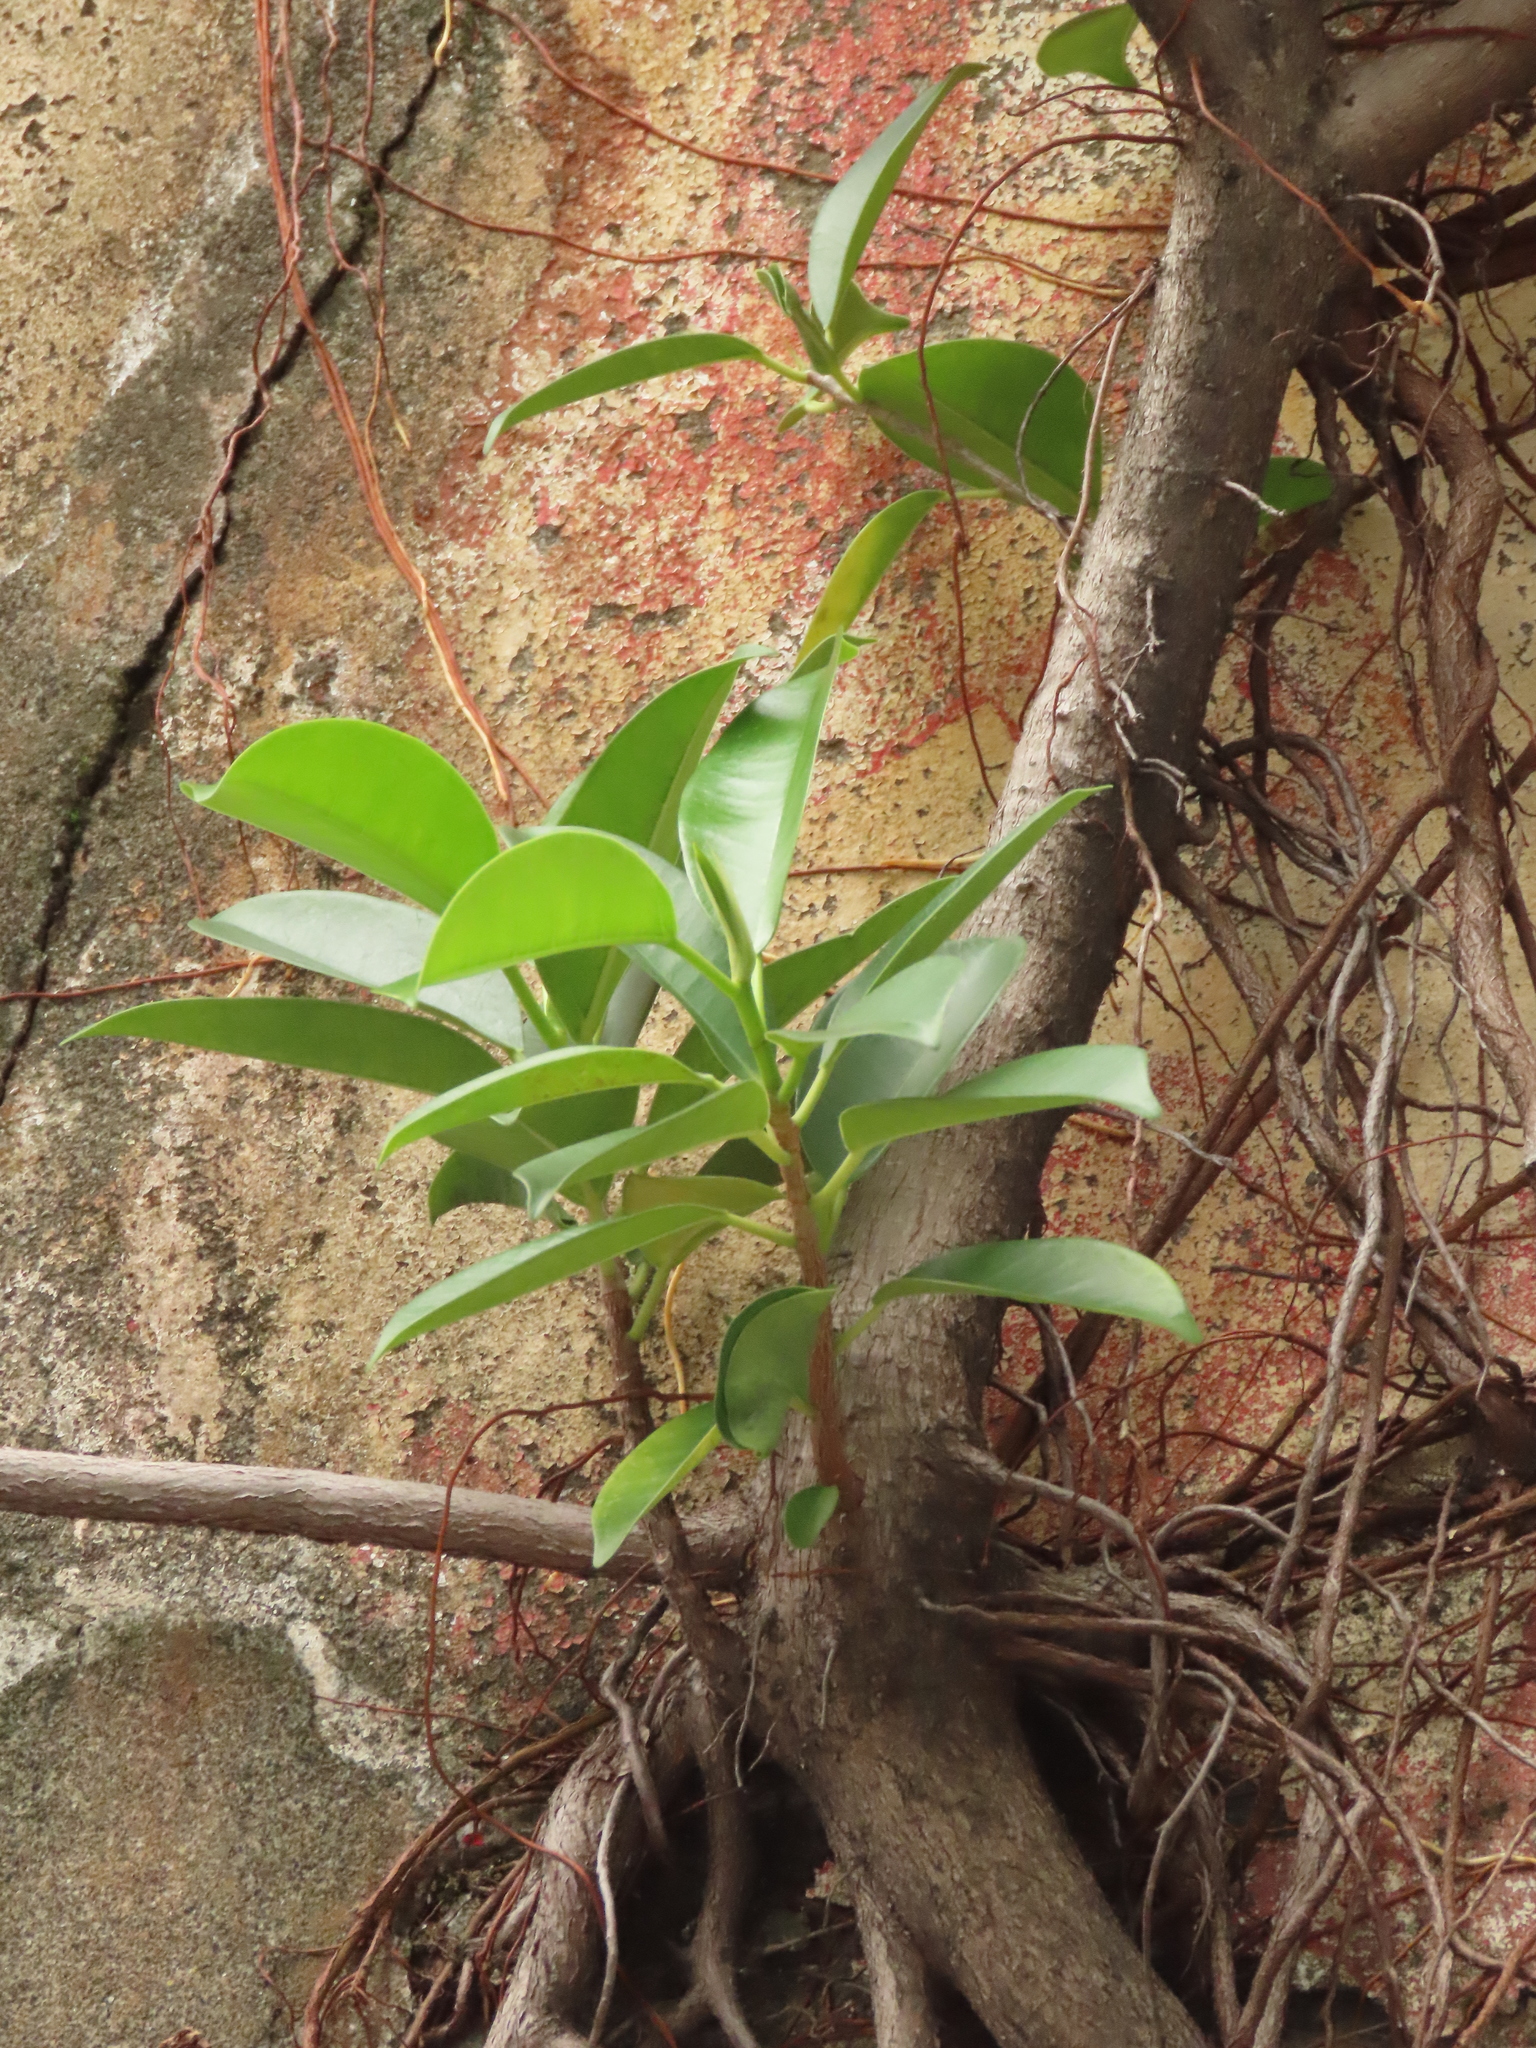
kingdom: Plantae
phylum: Tracheophyta
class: Magnoliopsida
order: Rosales
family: Moraceae
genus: Ficus
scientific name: Ficus microcarpa
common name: Chinese banyan
